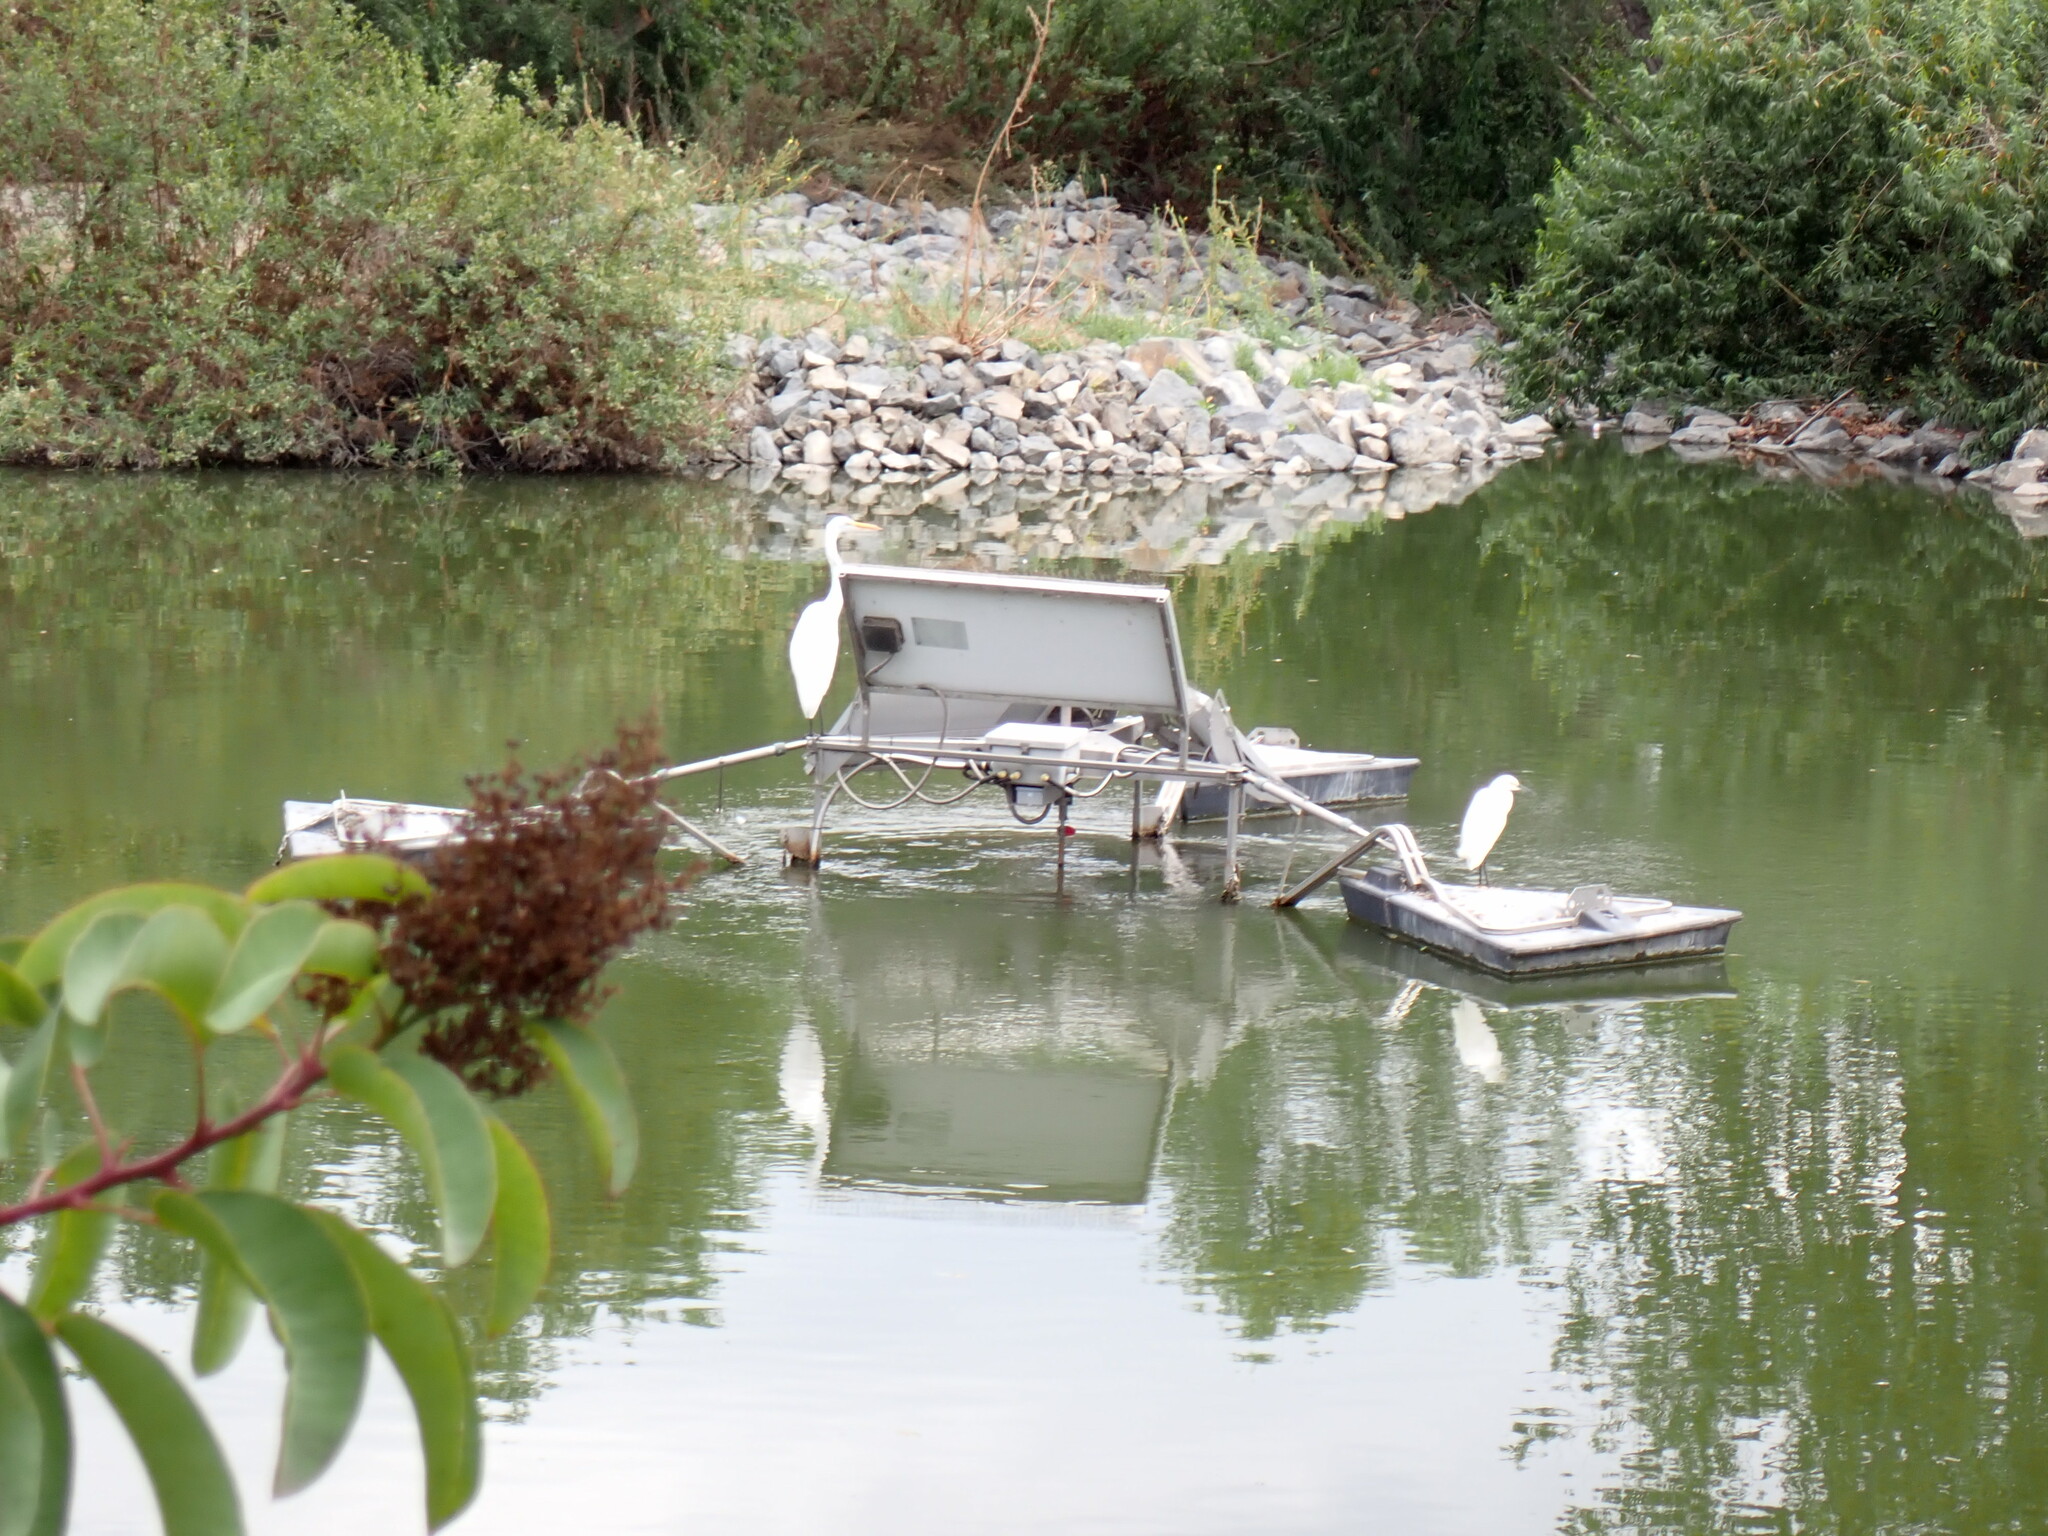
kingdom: Animalia
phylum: Chordata
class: Aves
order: Pelecaniformes
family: Ardeidae
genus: Egretta
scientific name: Egretta thula
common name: Snowy egret
